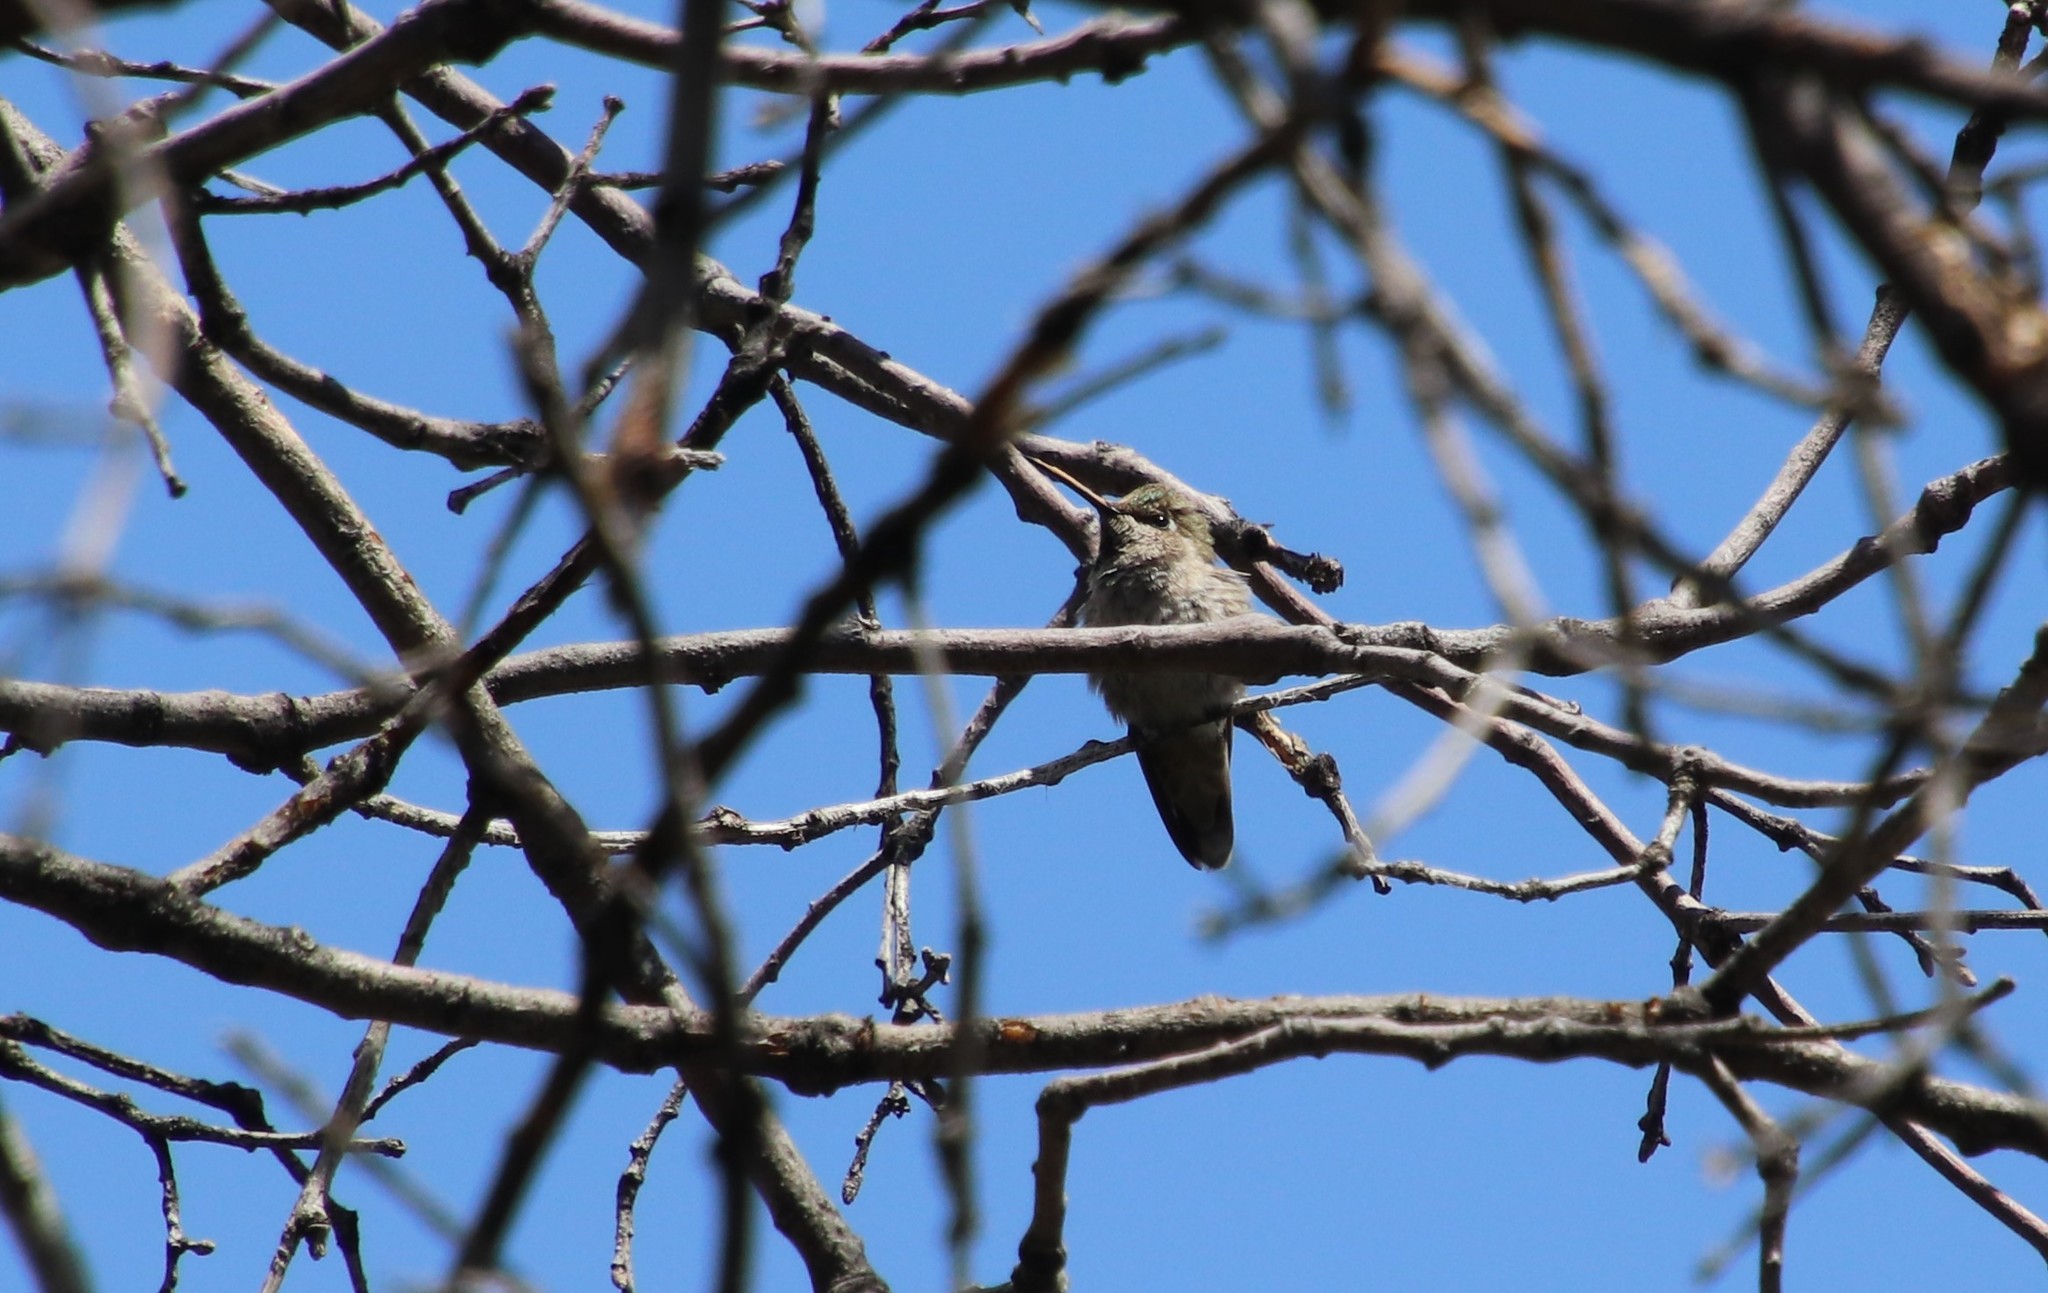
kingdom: Animalia
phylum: Chordata
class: Aves
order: Apodiformes
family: Trochilidae
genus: Calypte
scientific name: Calypte anna
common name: Anna's hummingbird
